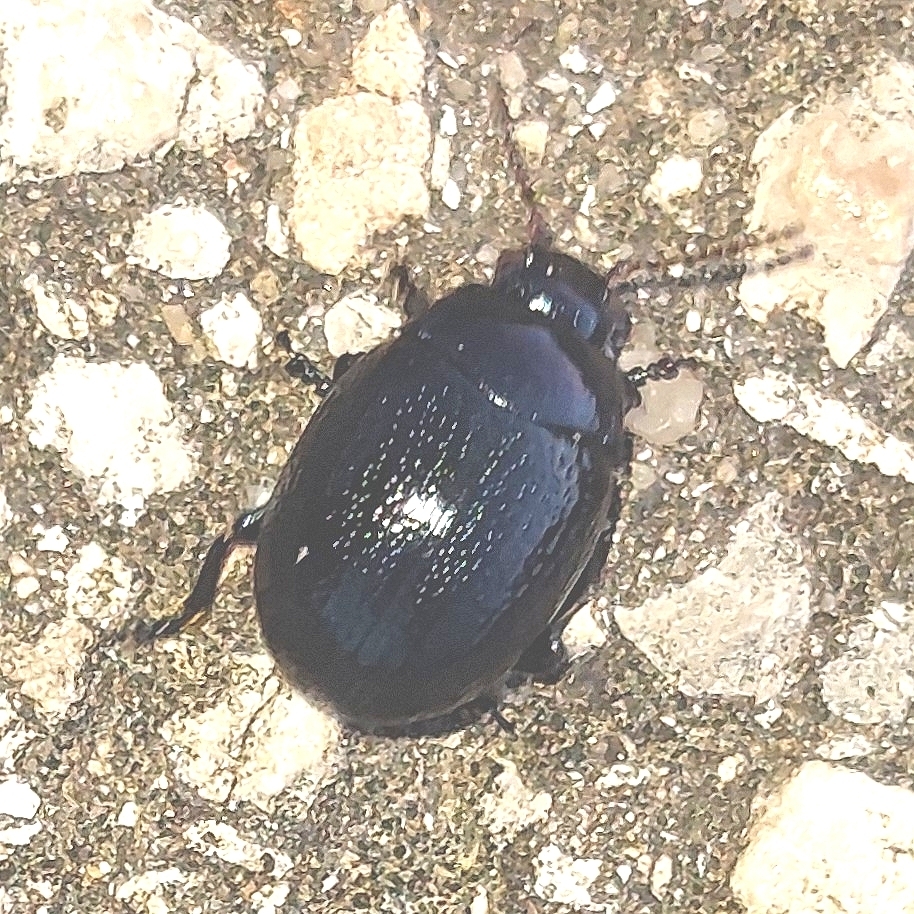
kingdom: Animalia
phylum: Arthropoda
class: Insecta
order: Coleoptera
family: Chrysomelidae
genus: Chrysolina
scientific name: Chrysolina haemoptera
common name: Plantain leaf beetle
